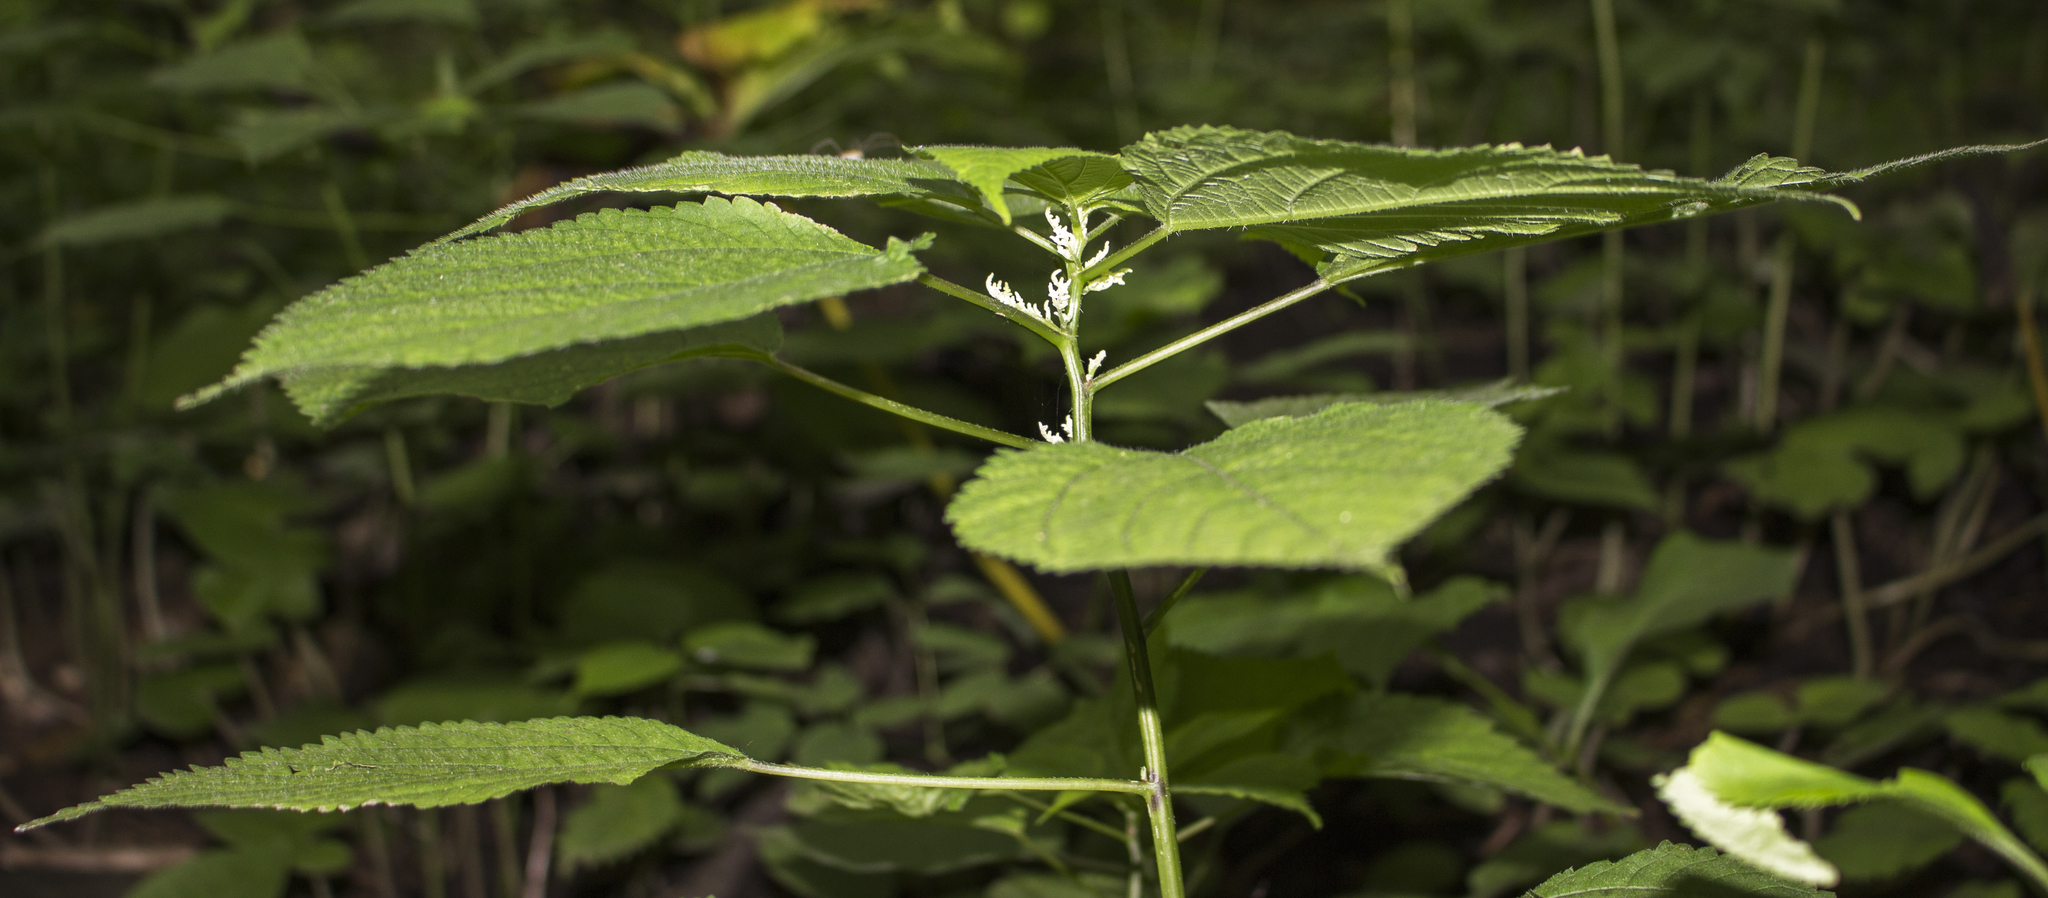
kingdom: Plantae
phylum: Tracheophyta
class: Magnoliopsida
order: Rosales
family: Urticaceae
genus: Laportea
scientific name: Laportea canadensis
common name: Canada nettle
